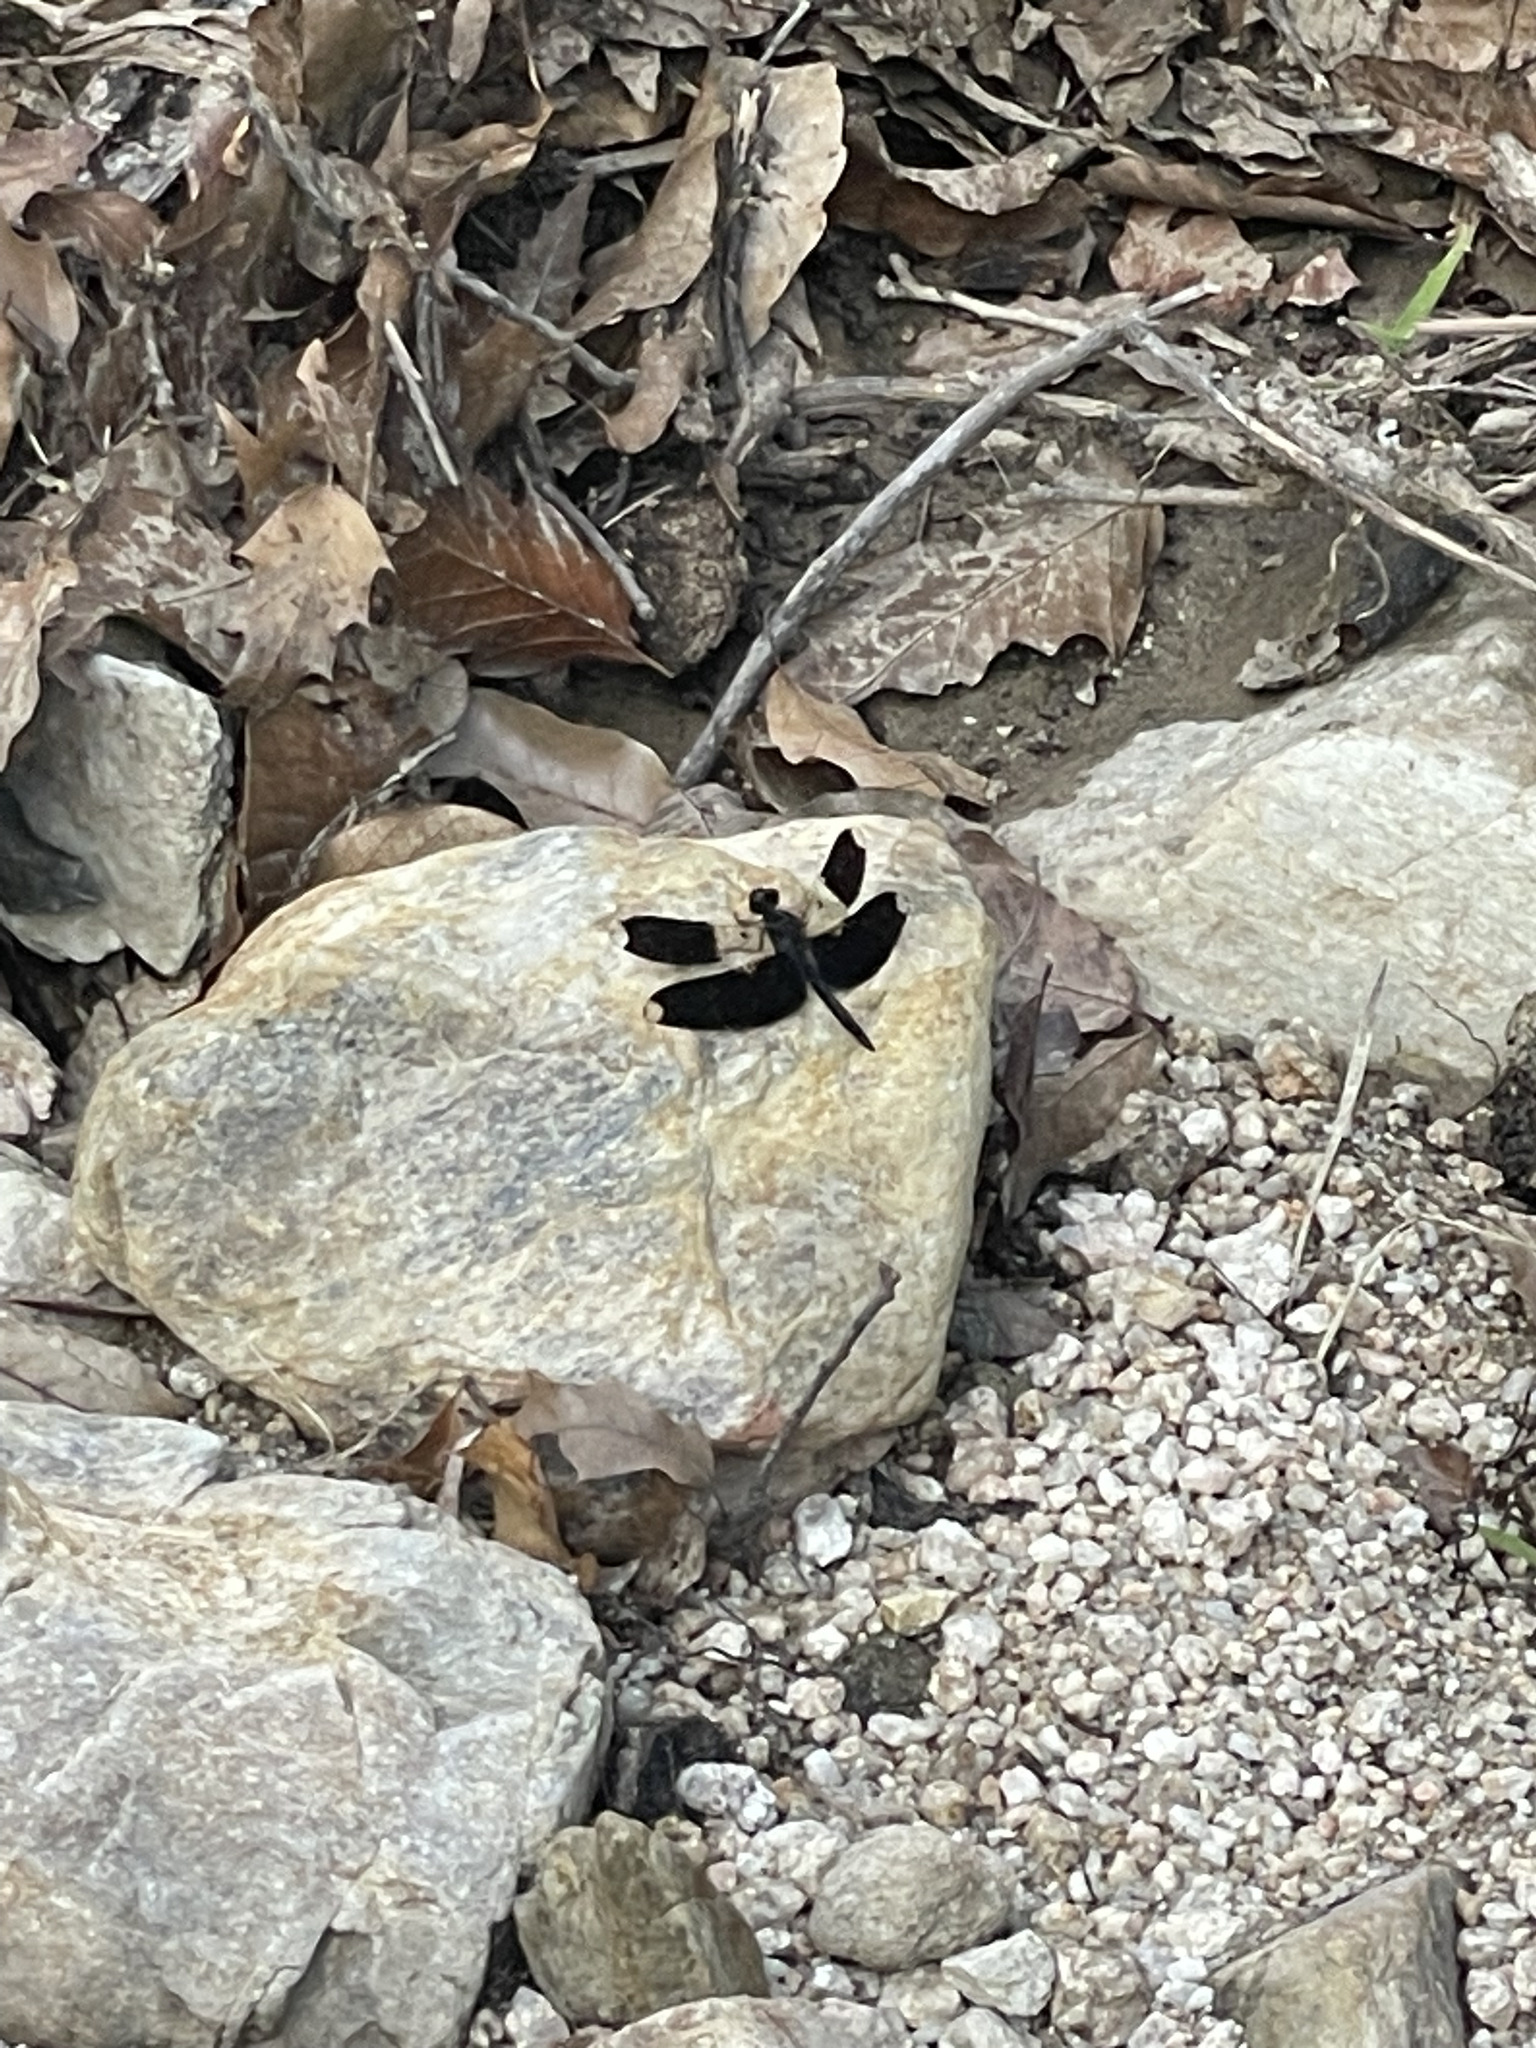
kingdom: Animalia
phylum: Arthropoda
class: Insecta
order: Odonata
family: Libellulidae
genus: Pseudoleon
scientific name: Pseudoleon superbus
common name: Filigree skimmer
